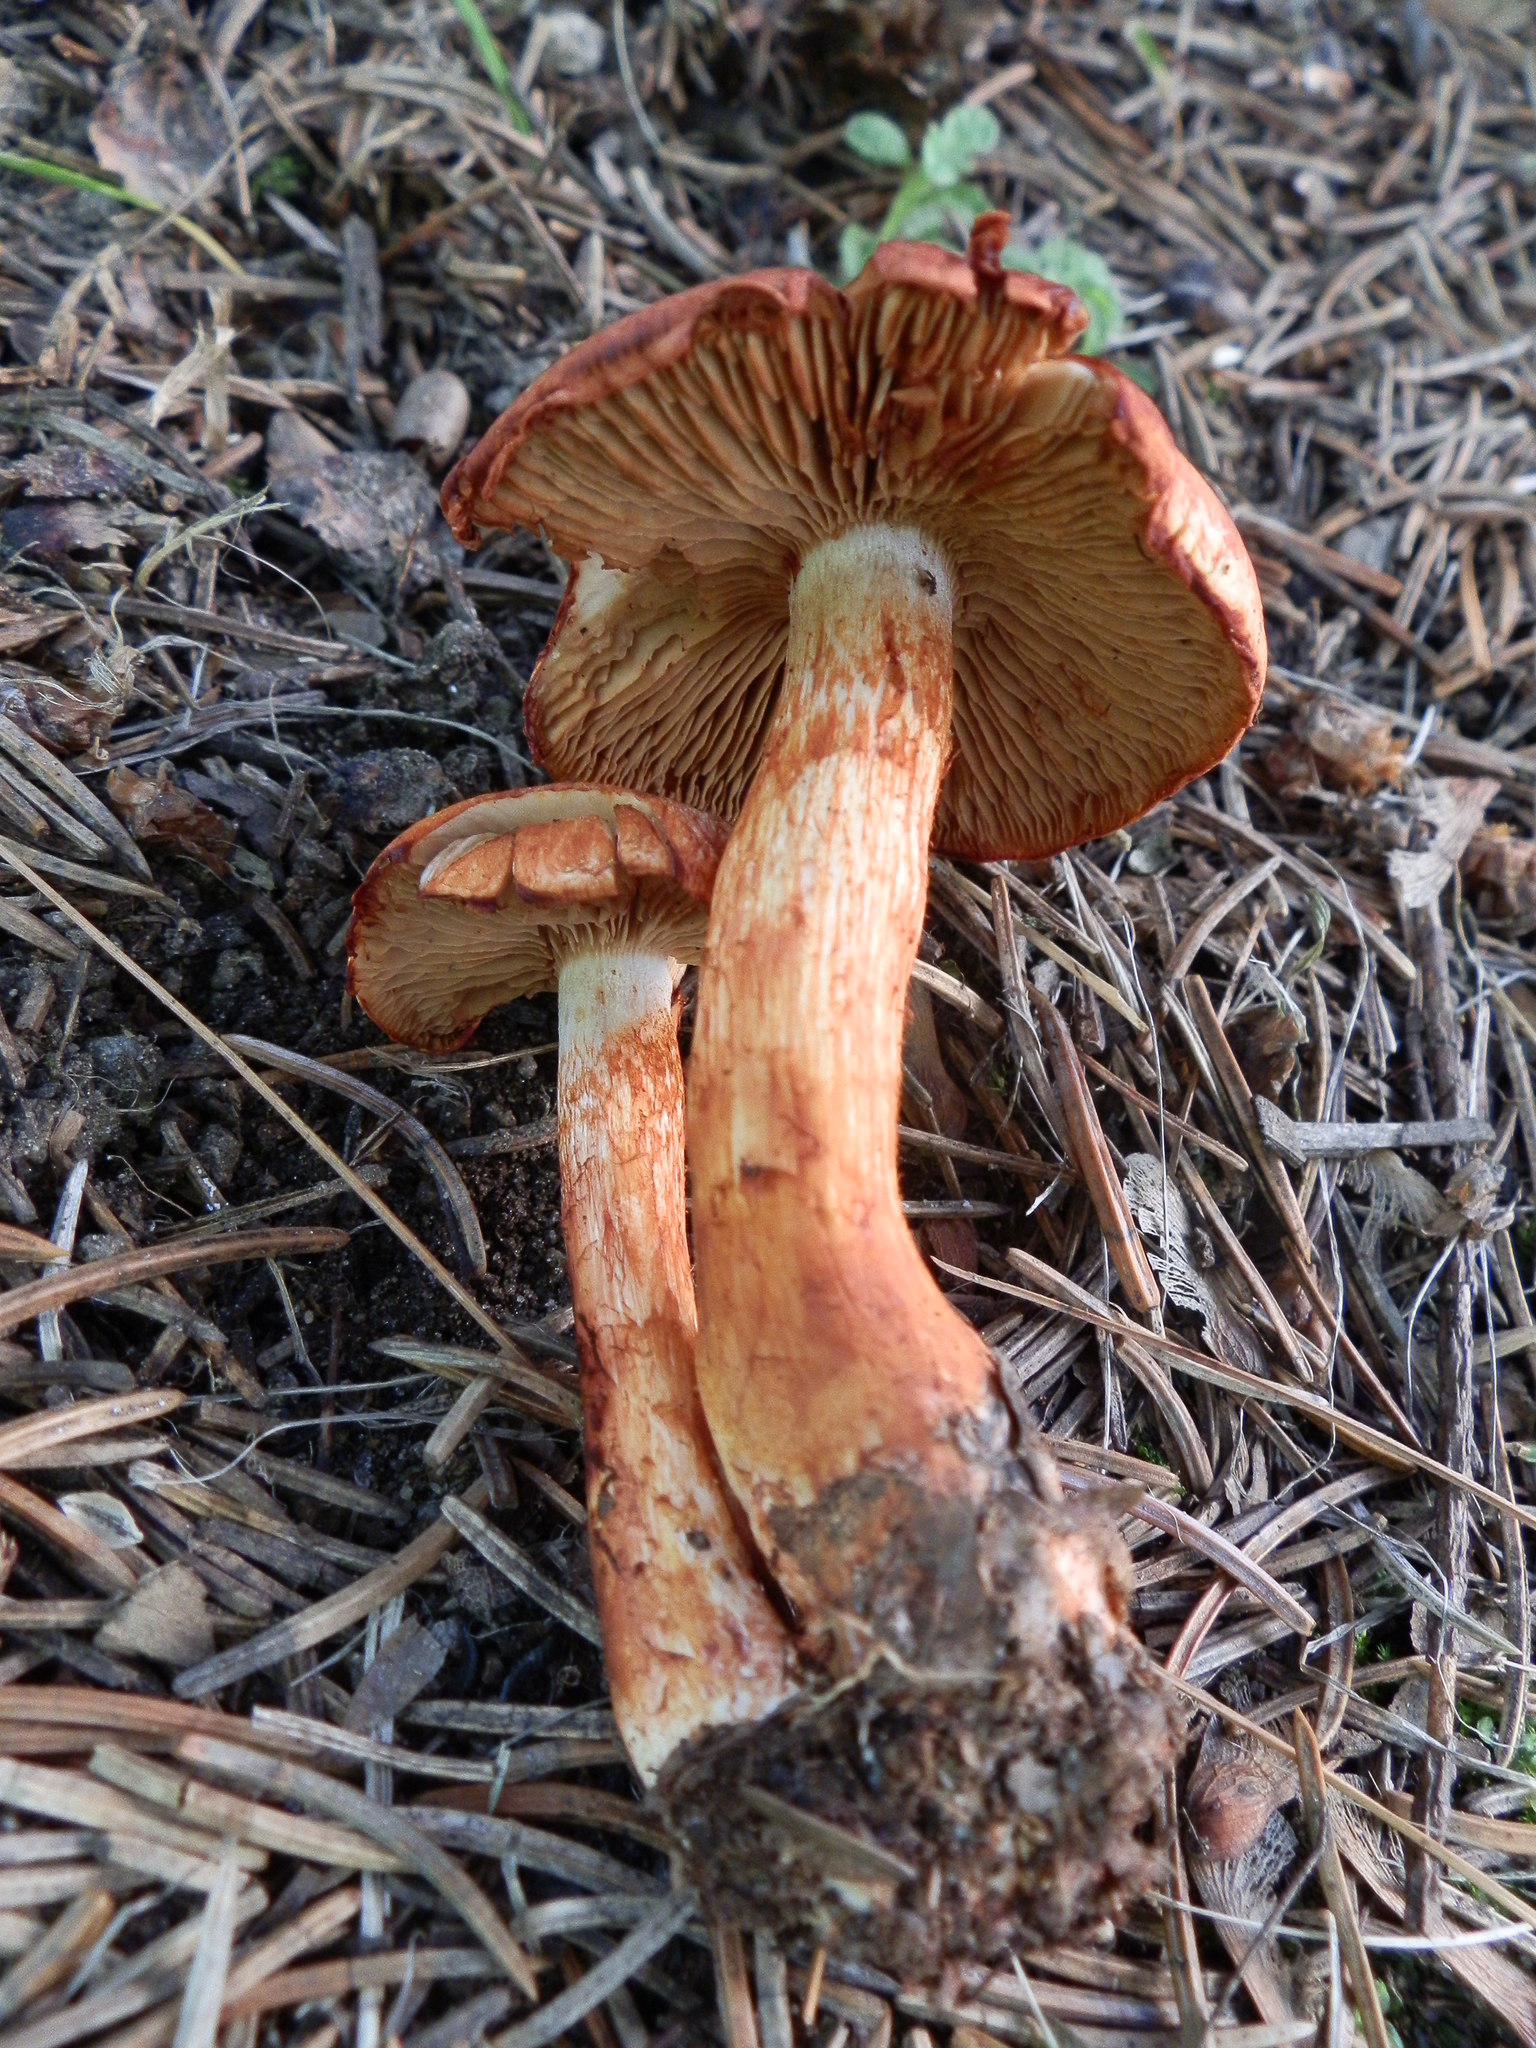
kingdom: Fungi
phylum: Basidiomycota
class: Agaricomycetes
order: Agaricales
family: Cortinariaceae
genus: Cortinarius
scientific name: Cortinarius bolaris
